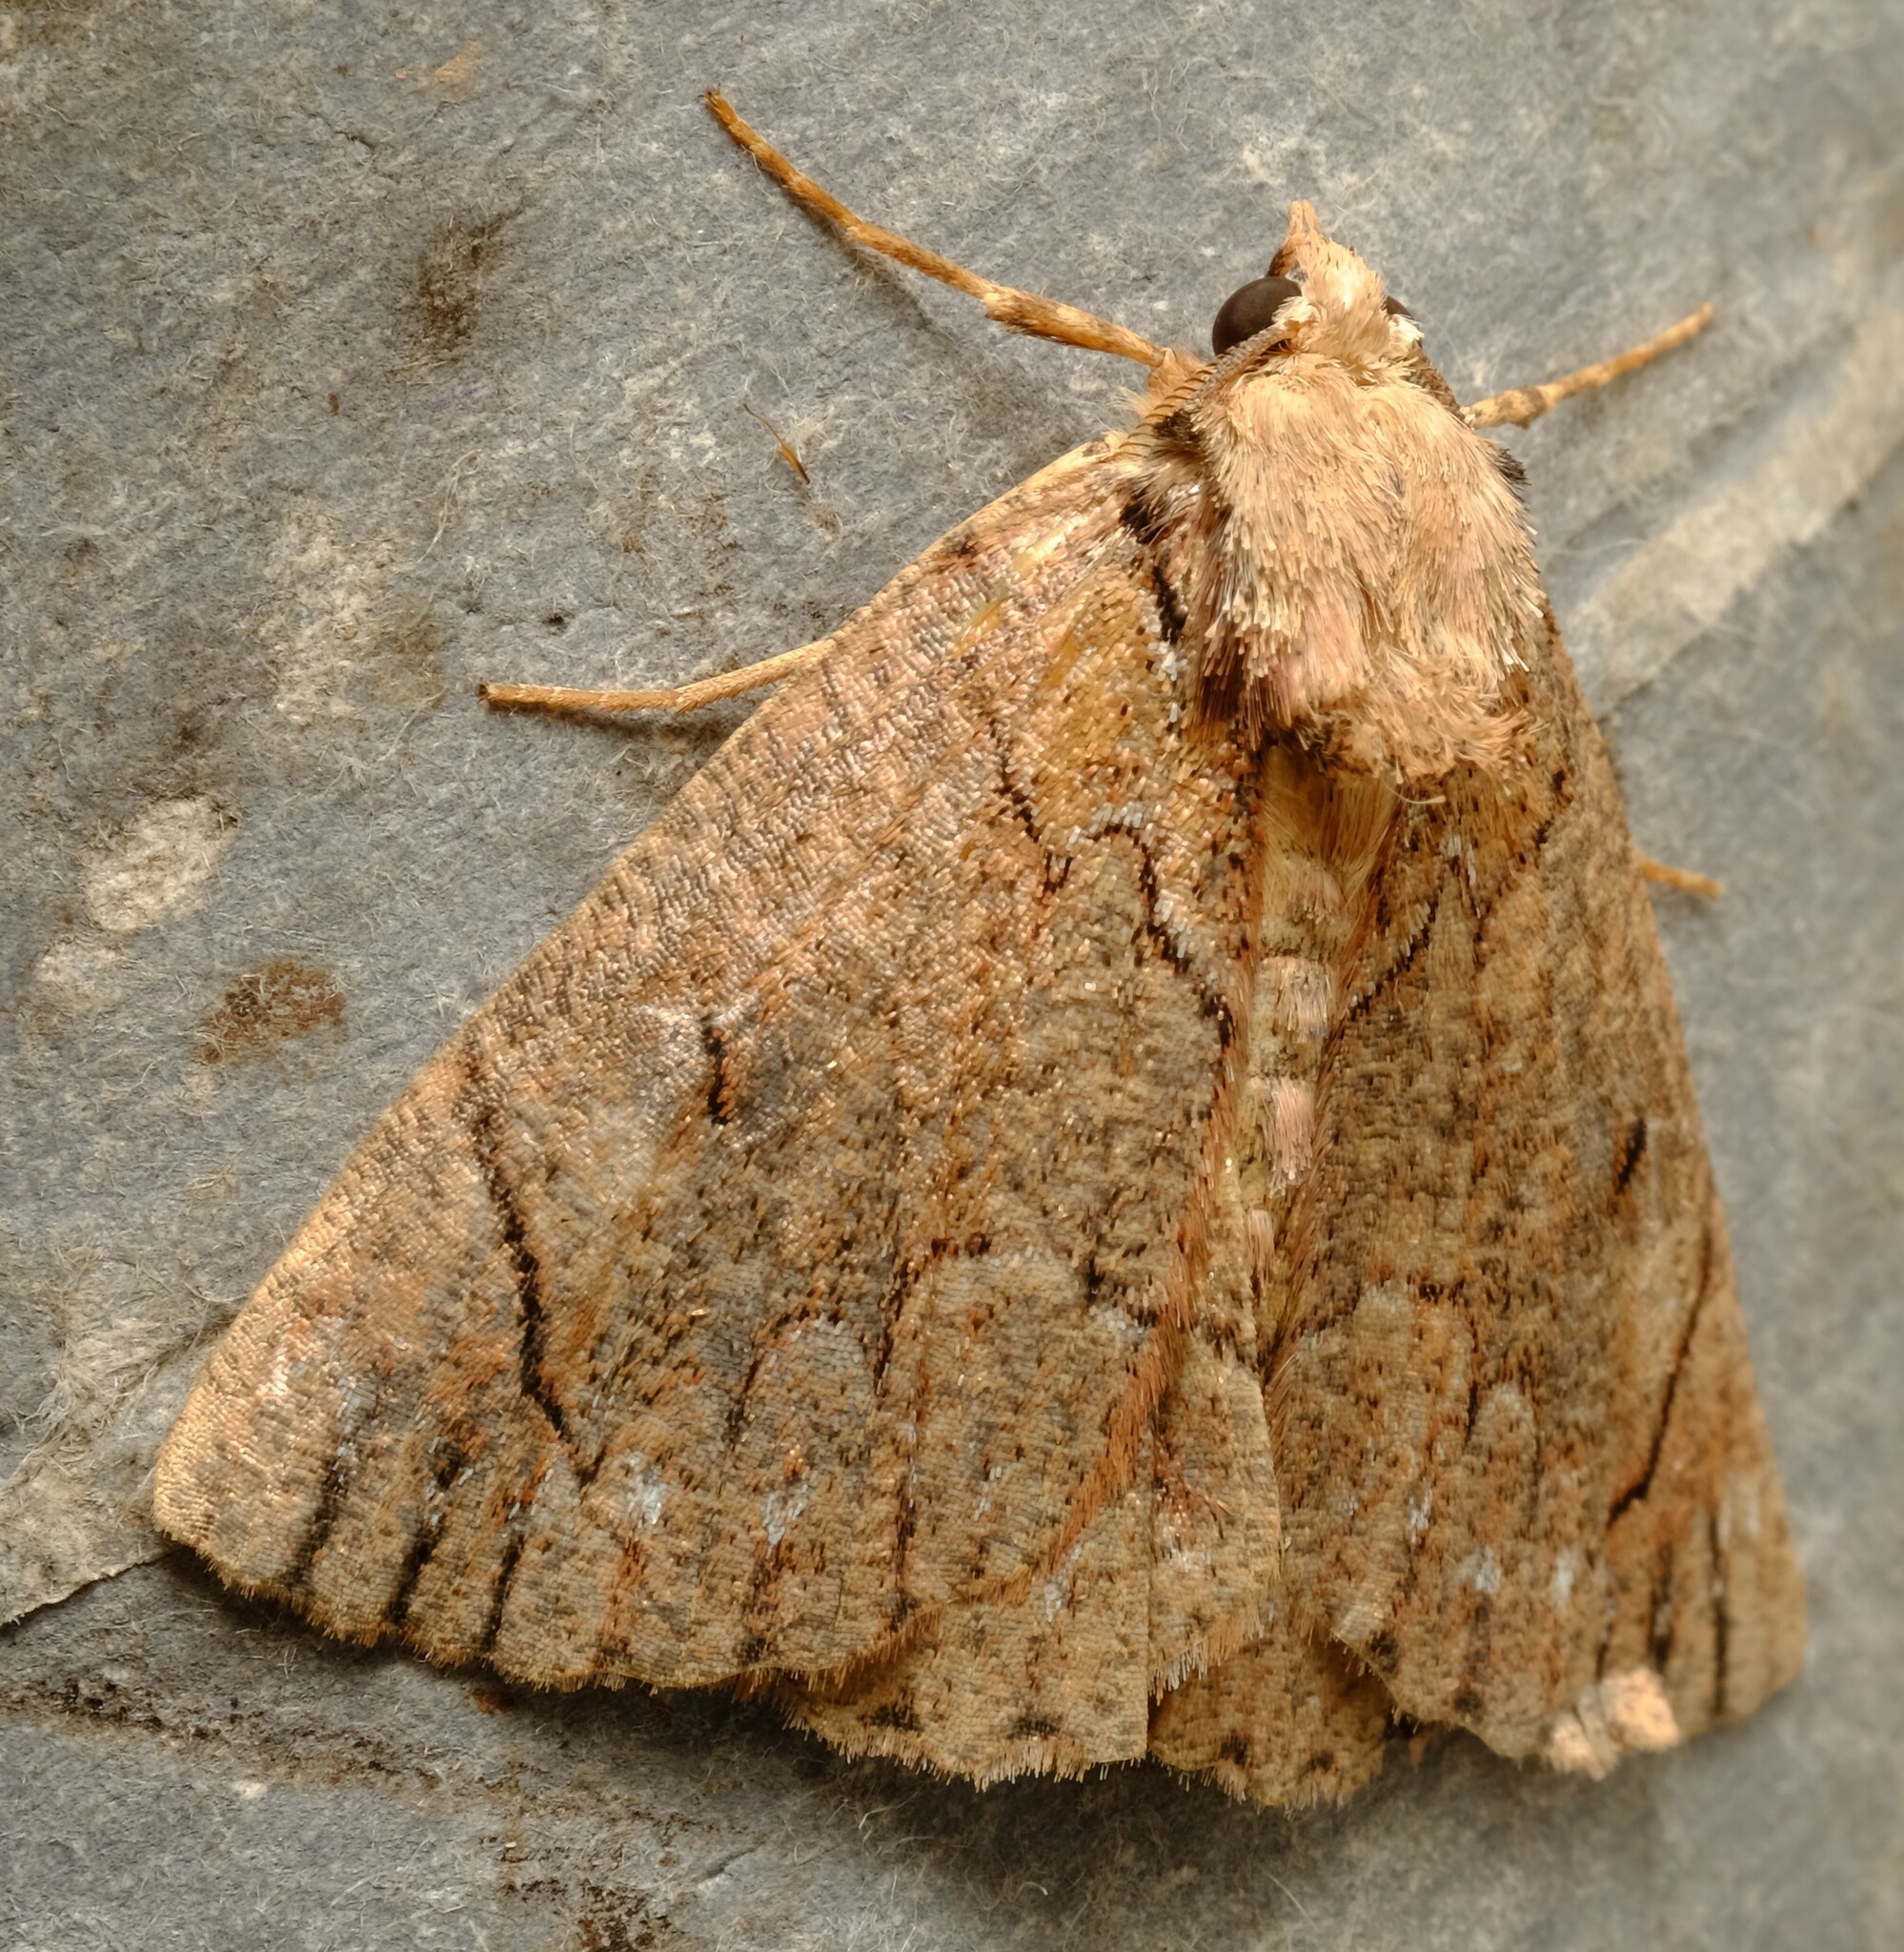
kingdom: Animalia
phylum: Arthropoda
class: Insecta
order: Lepidoptera
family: Geometridae
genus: Heliomystis
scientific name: Heliomystis electrica
